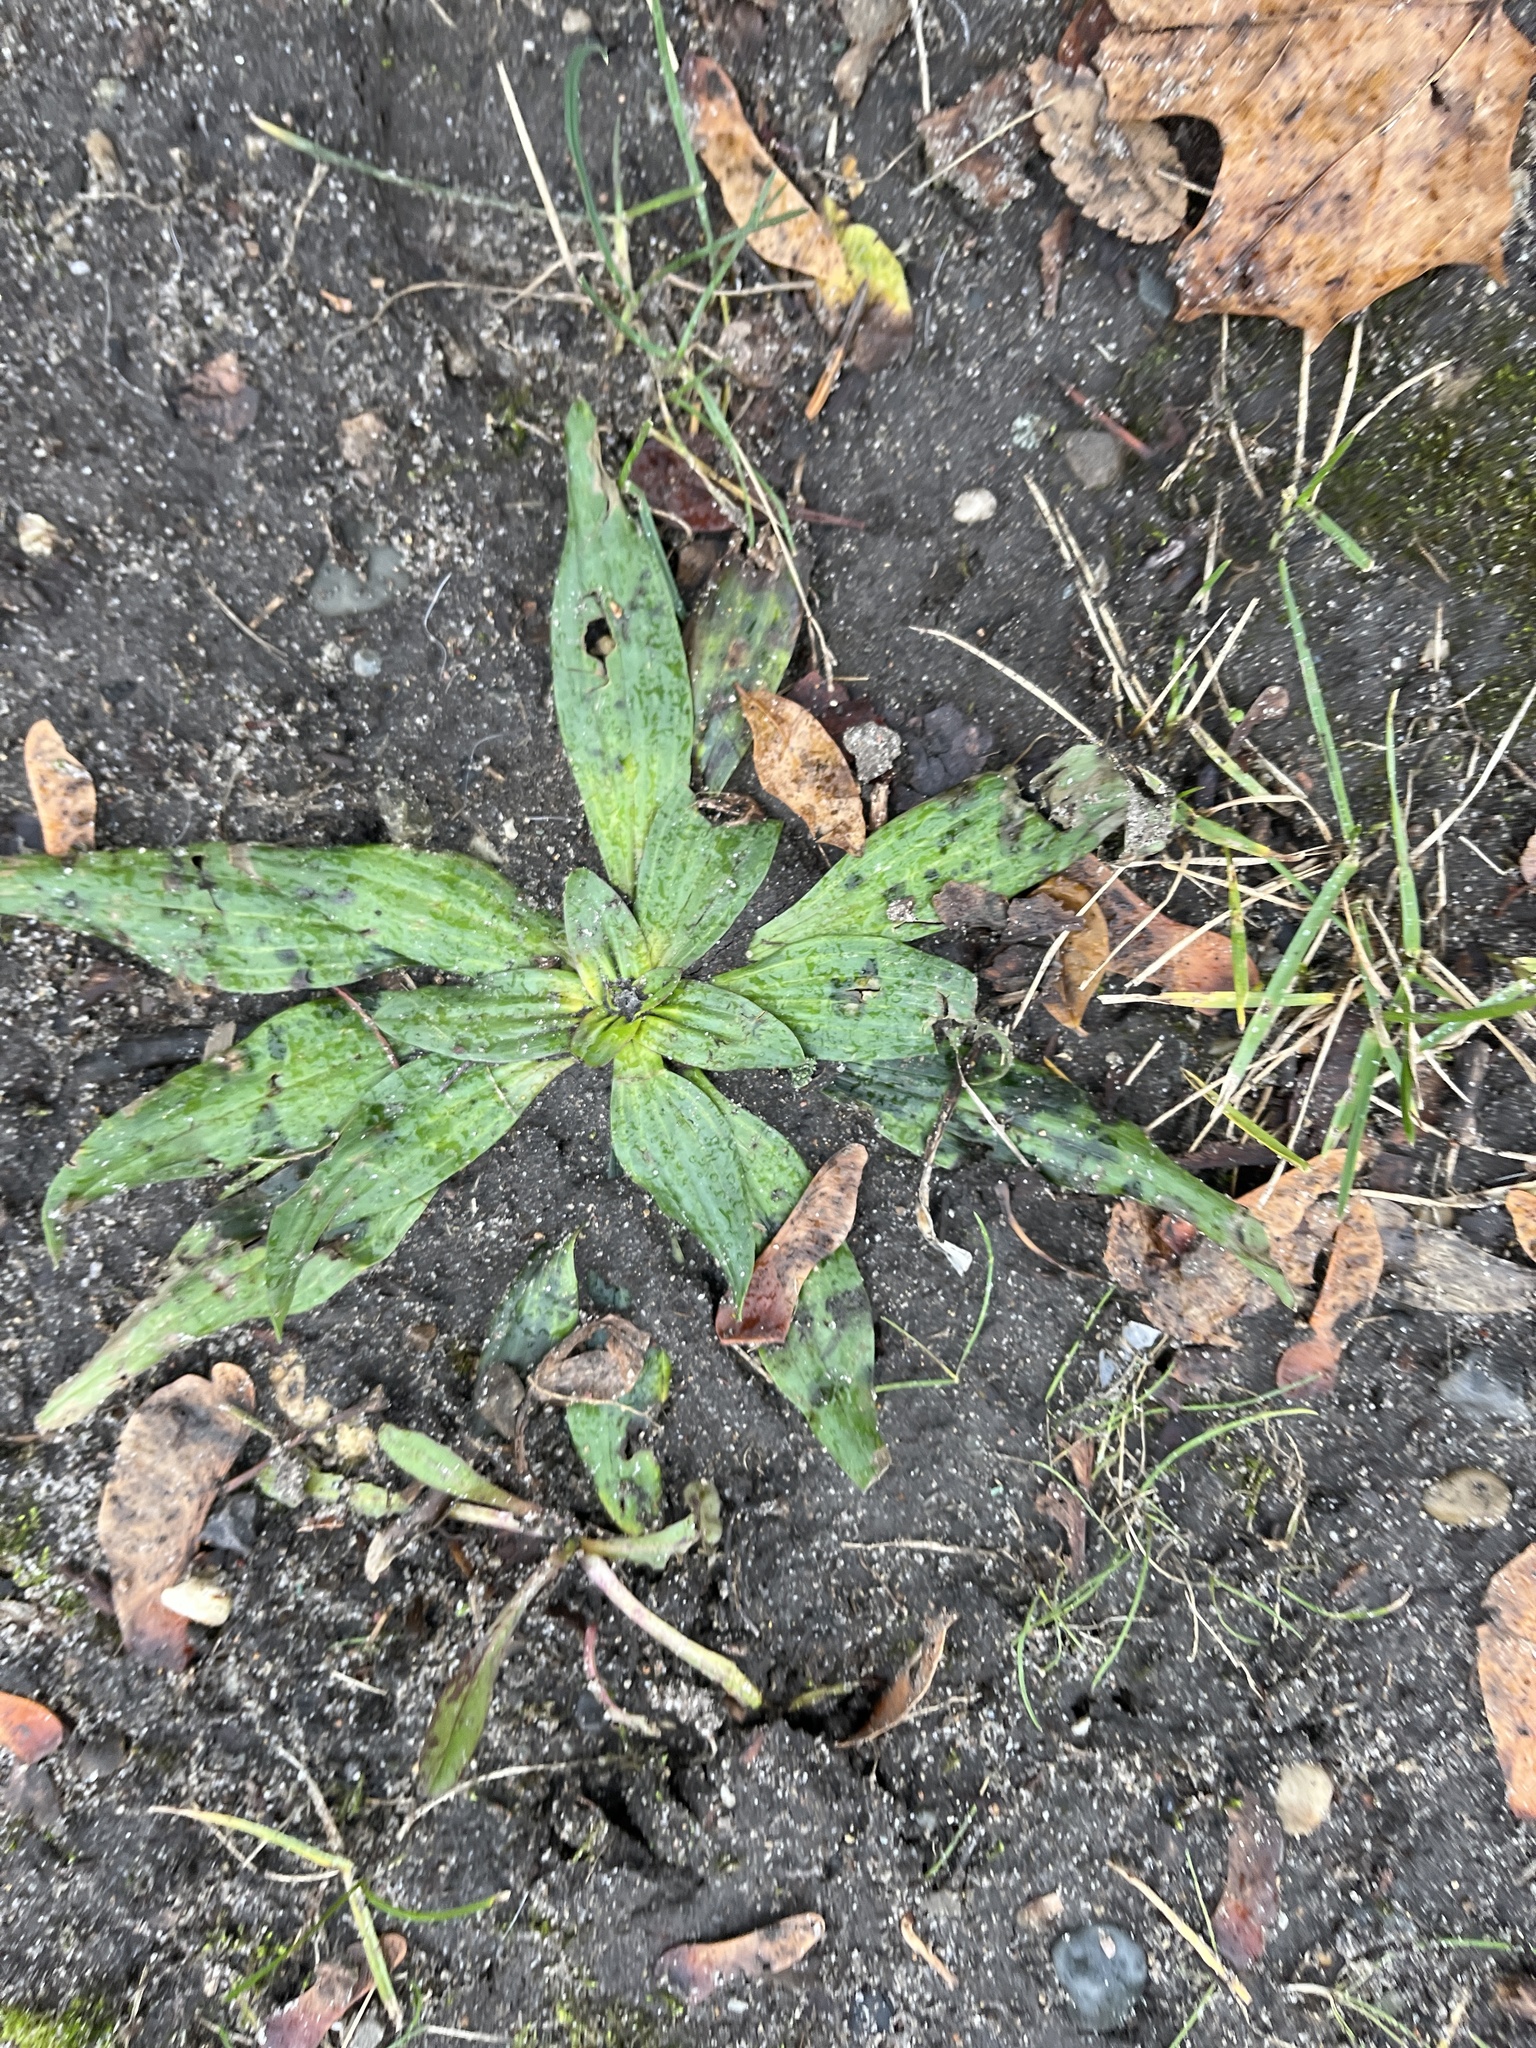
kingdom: Plantae
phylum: Tracheophyta
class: Magnoliopsida
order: Lamiales
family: Plantaginaceae
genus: Plantago
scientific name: Plantago lanceolata
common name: Ribwort plantain
